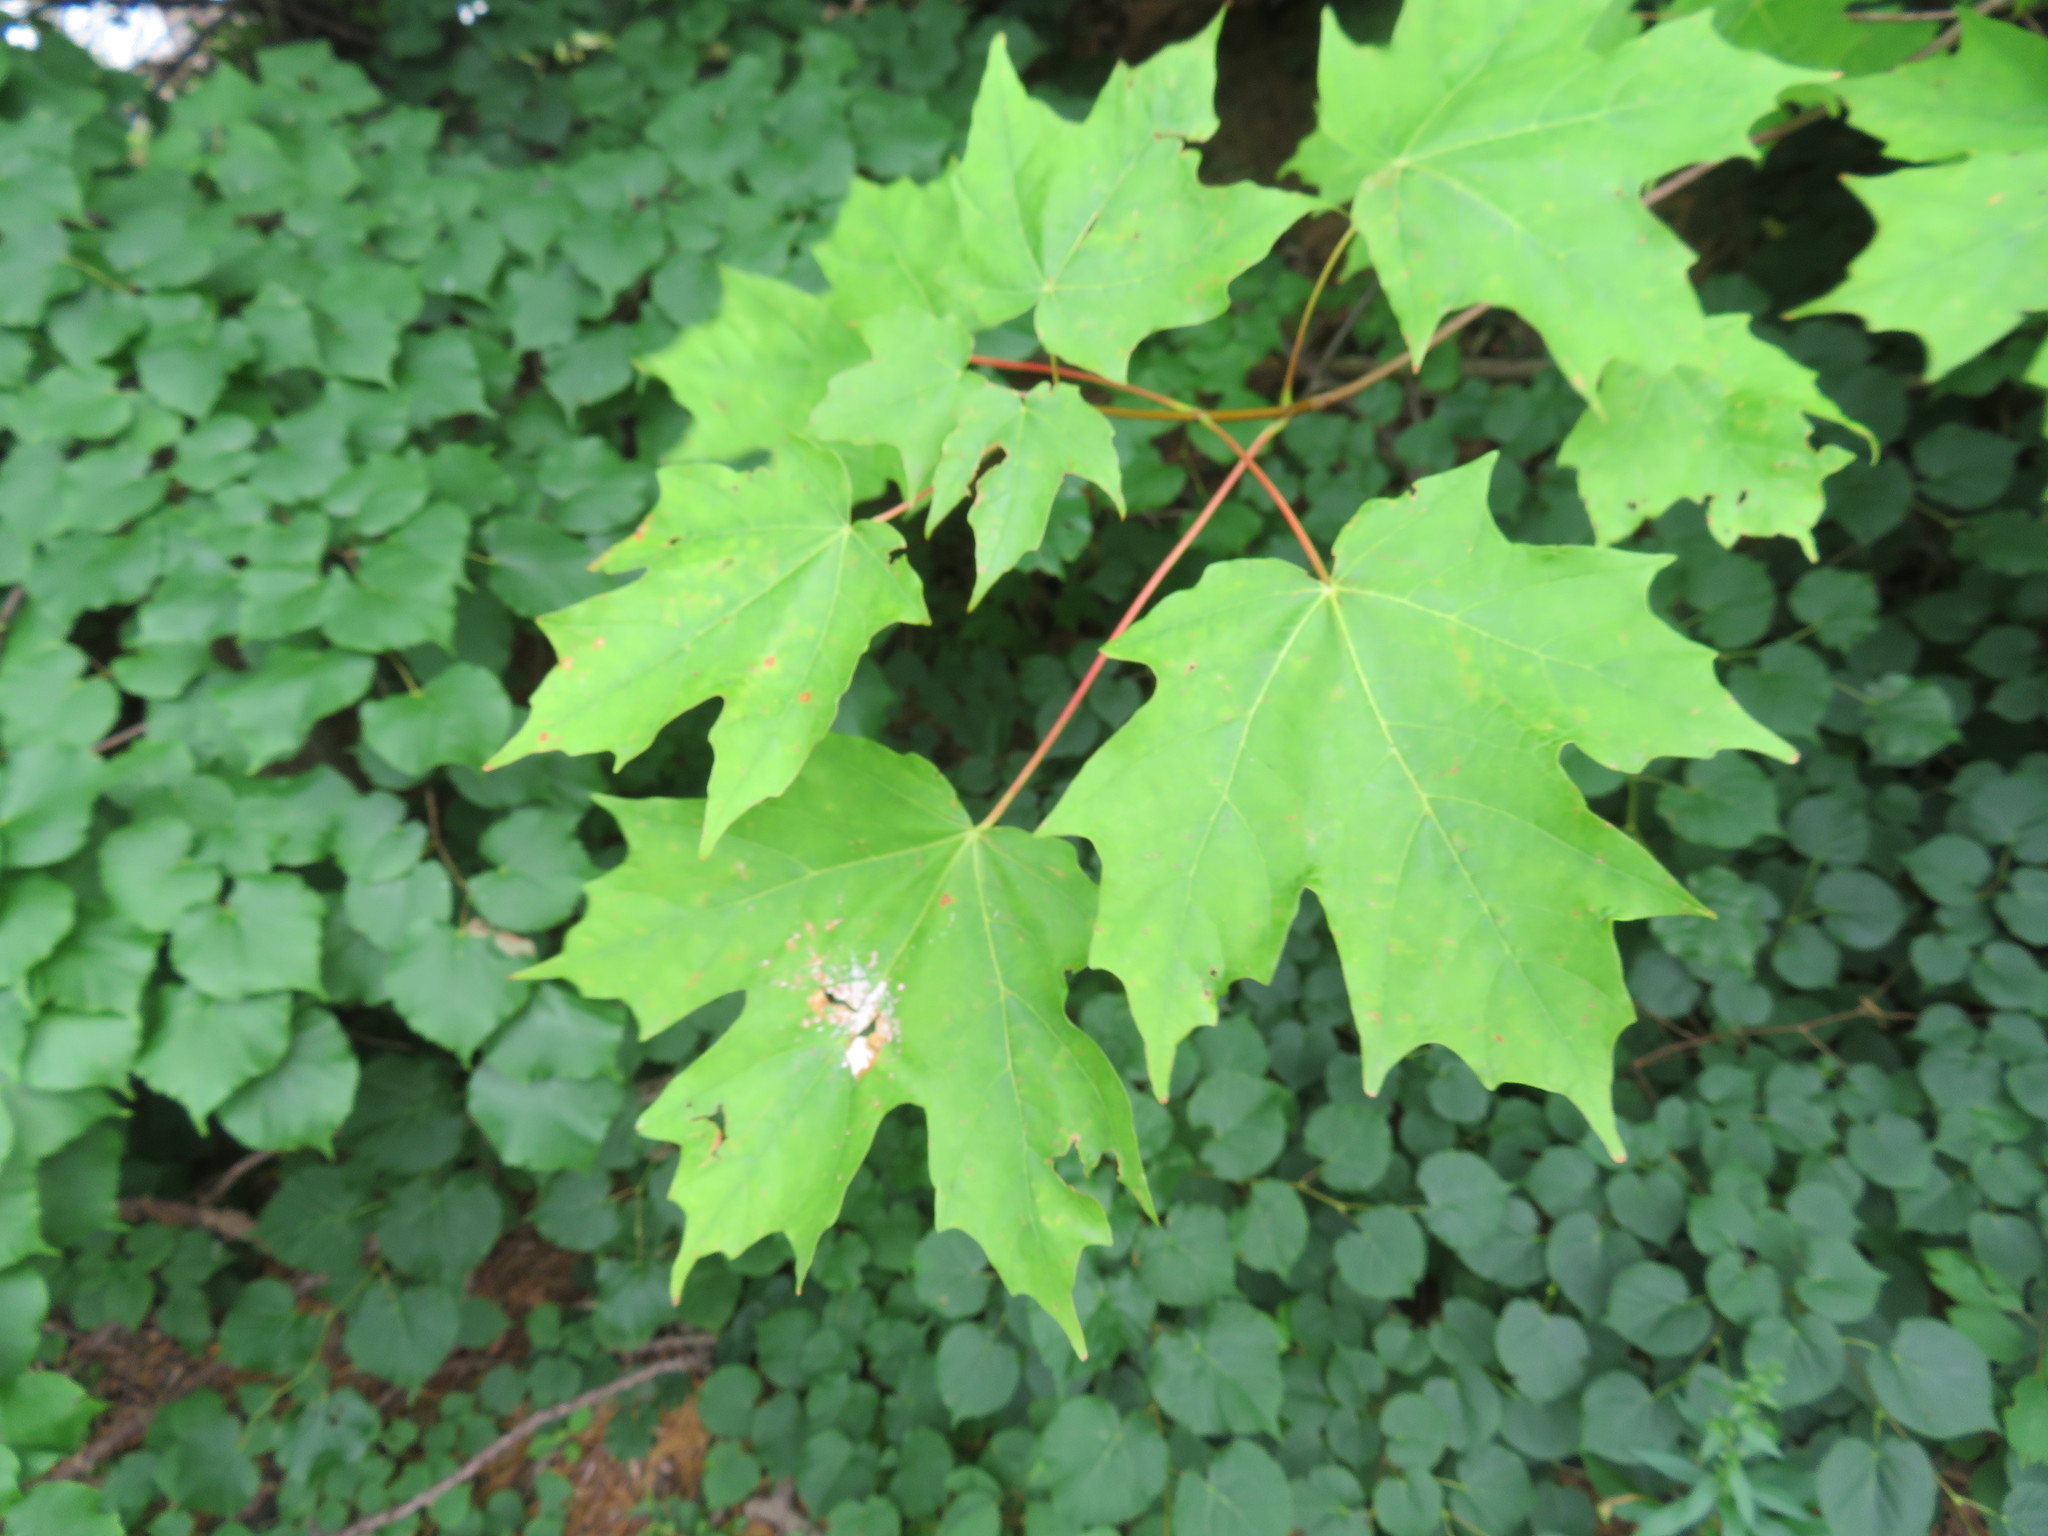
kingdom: Plantae
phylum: Tracheophyta
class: Magnoliopsida
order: Sapindales
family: Sapindaceae
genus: Acer
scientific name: Acer saccharum
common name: Sugar maple
